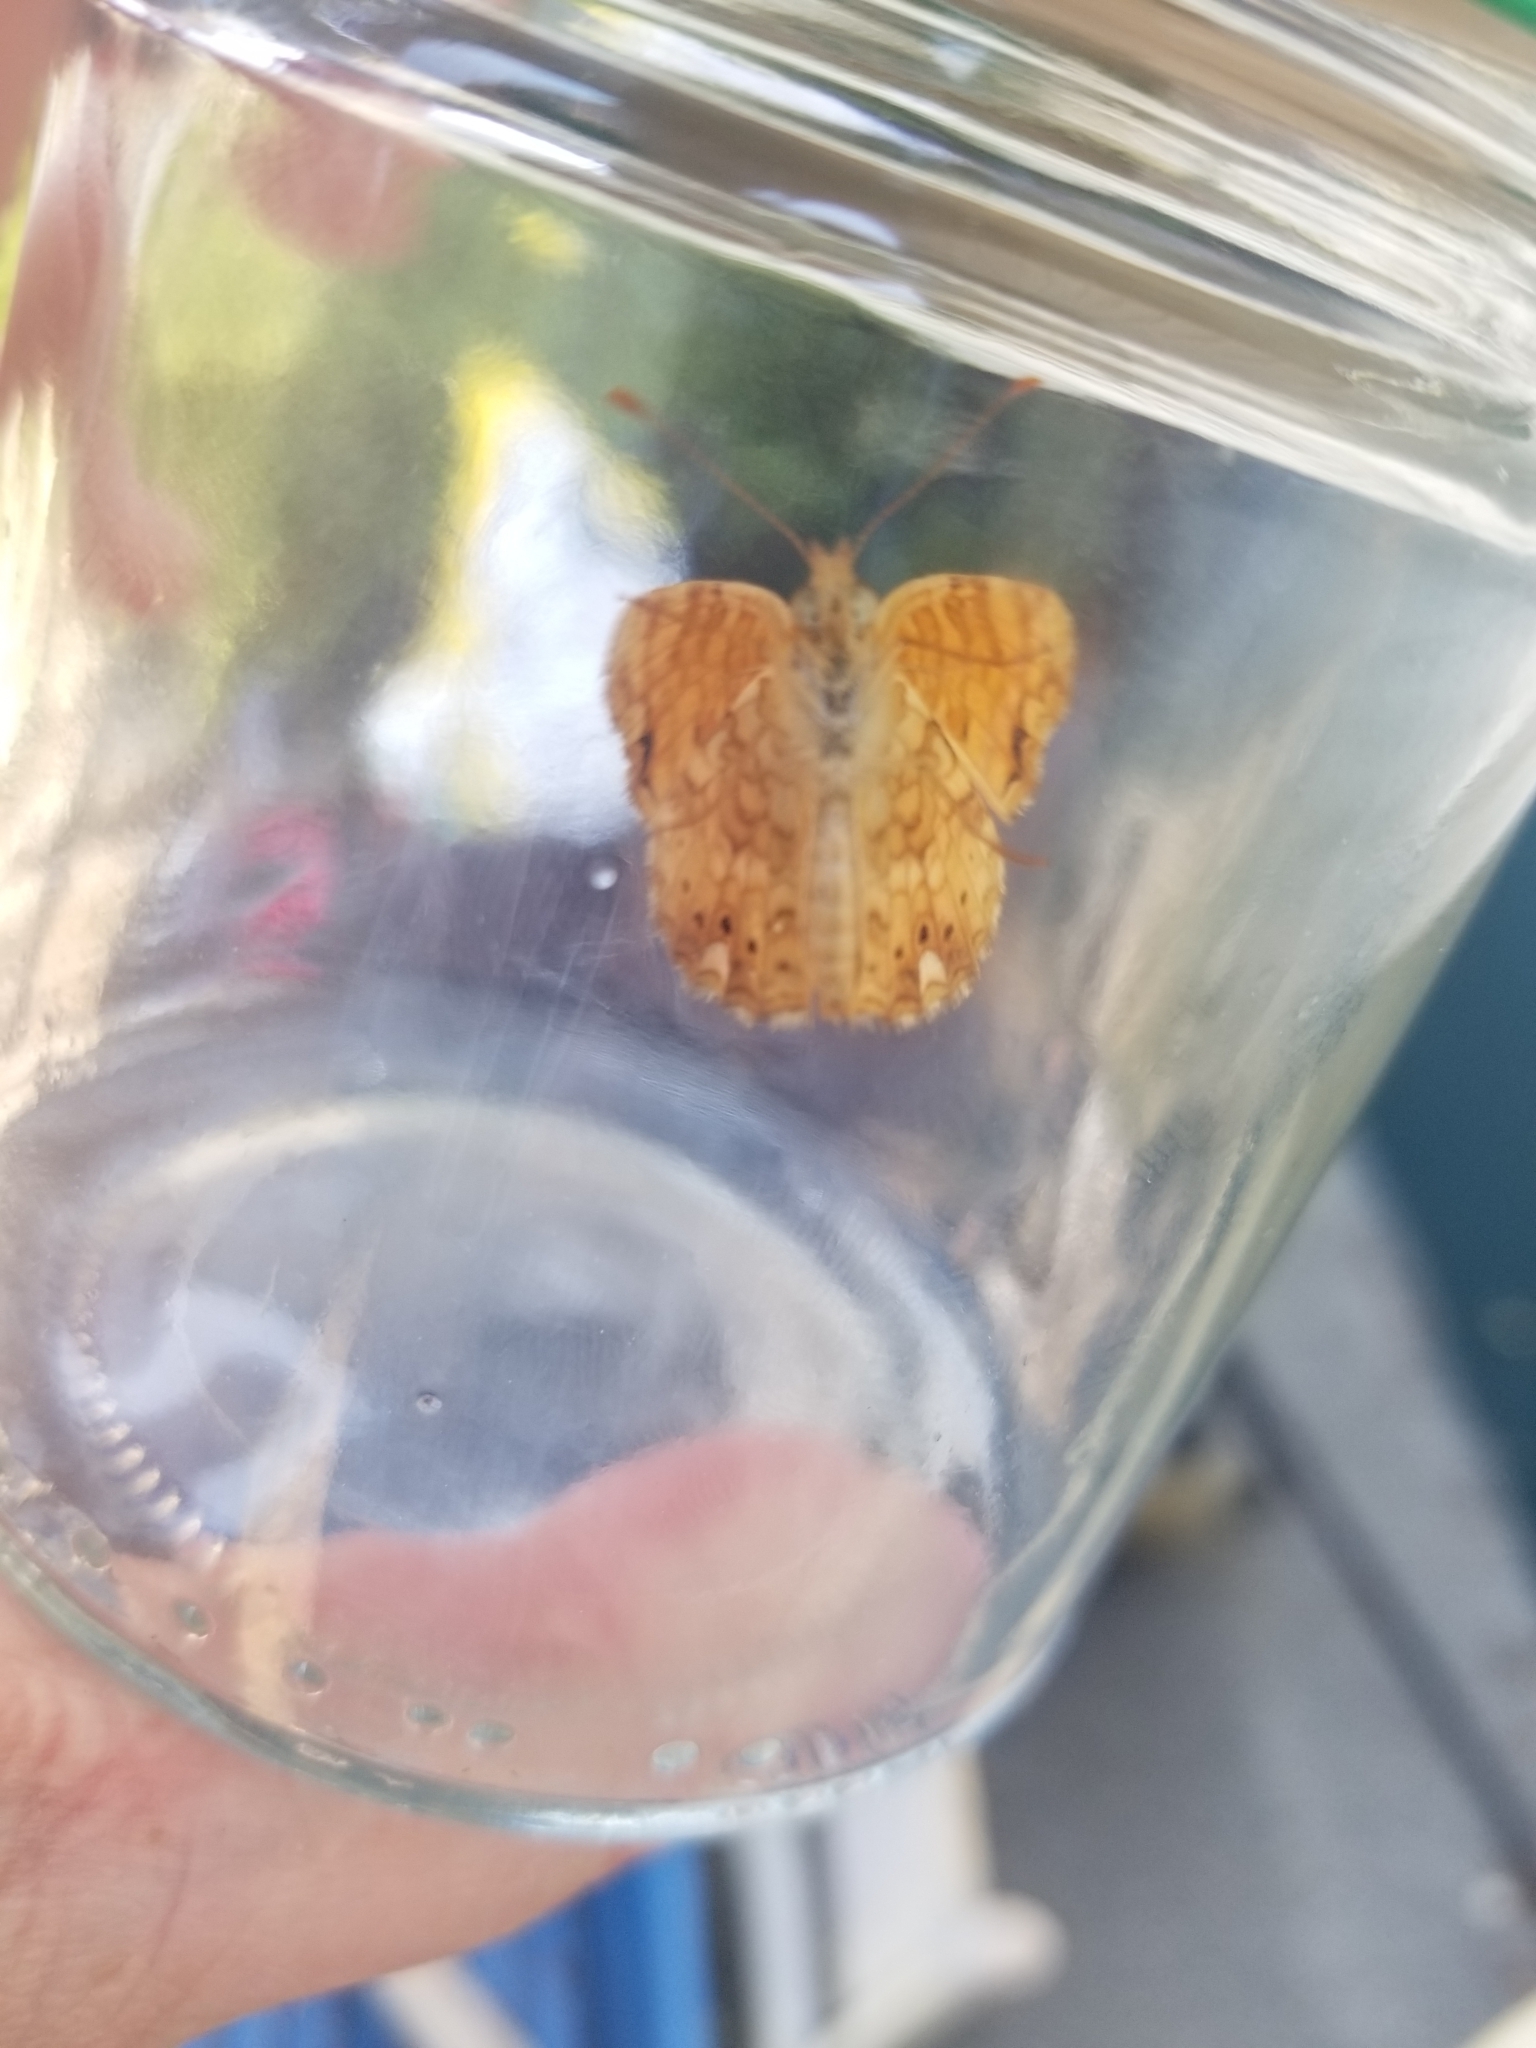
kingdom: Animalia
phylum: Arthropoda
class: Insecta
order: Lepidoptera
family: Nymphalidae
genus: Eresia
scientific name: Eresia aveyrona
